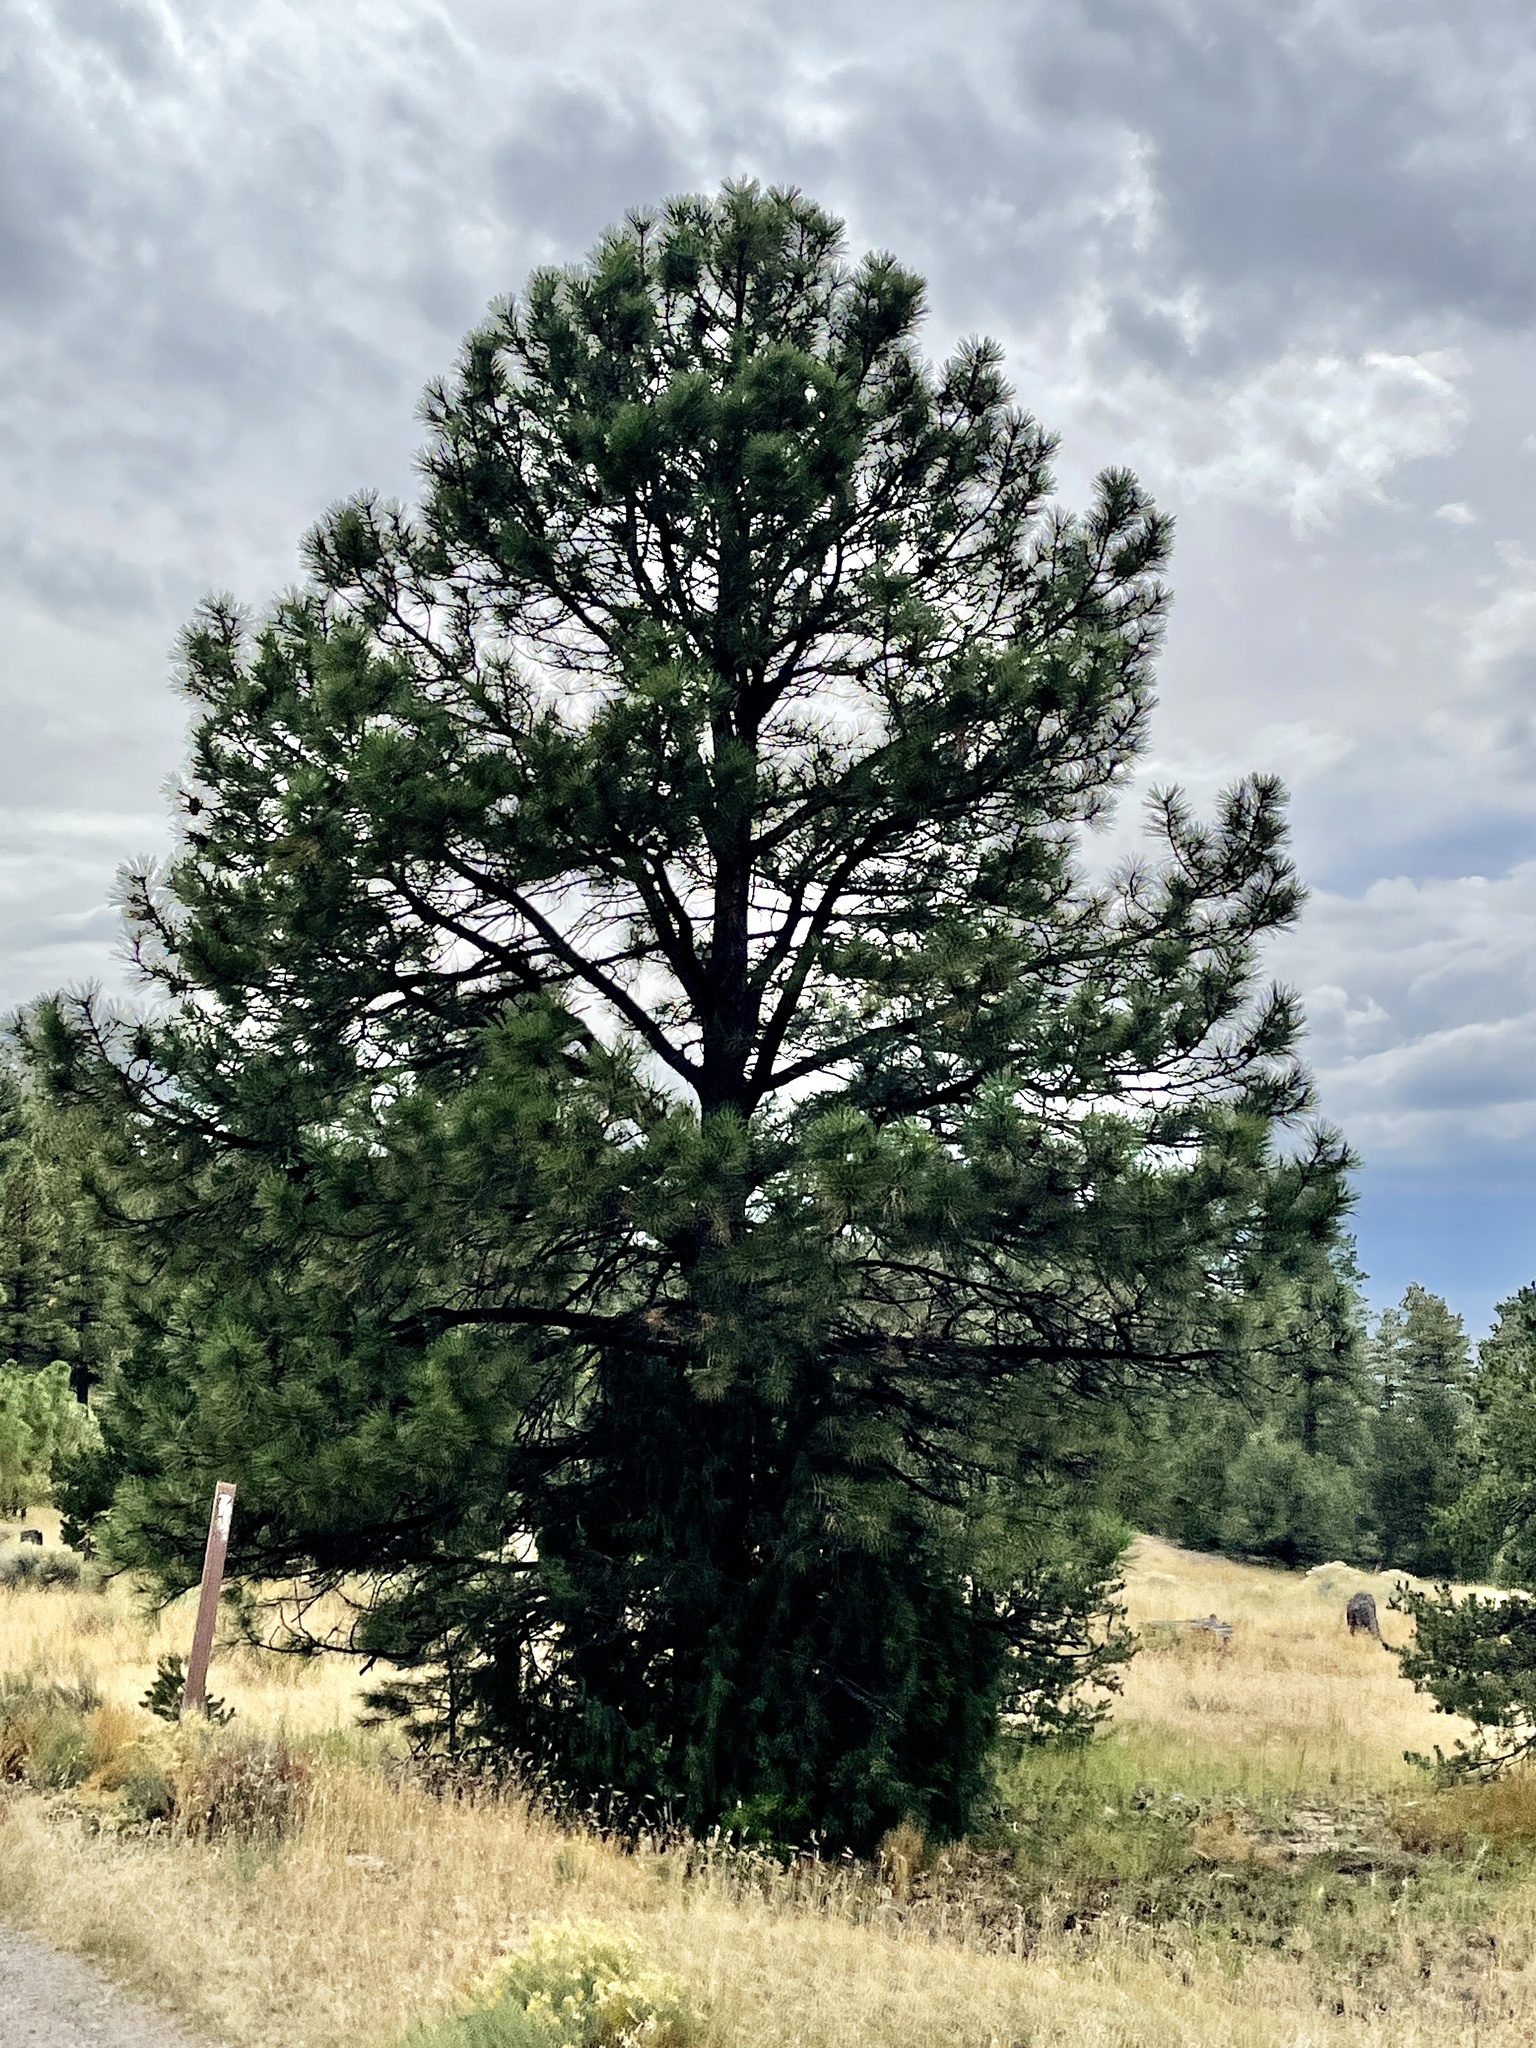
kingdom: Plantae
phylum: Tracheophyta
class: Pinopsida
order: Pinales
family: Pinaceae
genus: Pinus
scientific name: Pinus ponderosa
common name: Western yellow-pine
